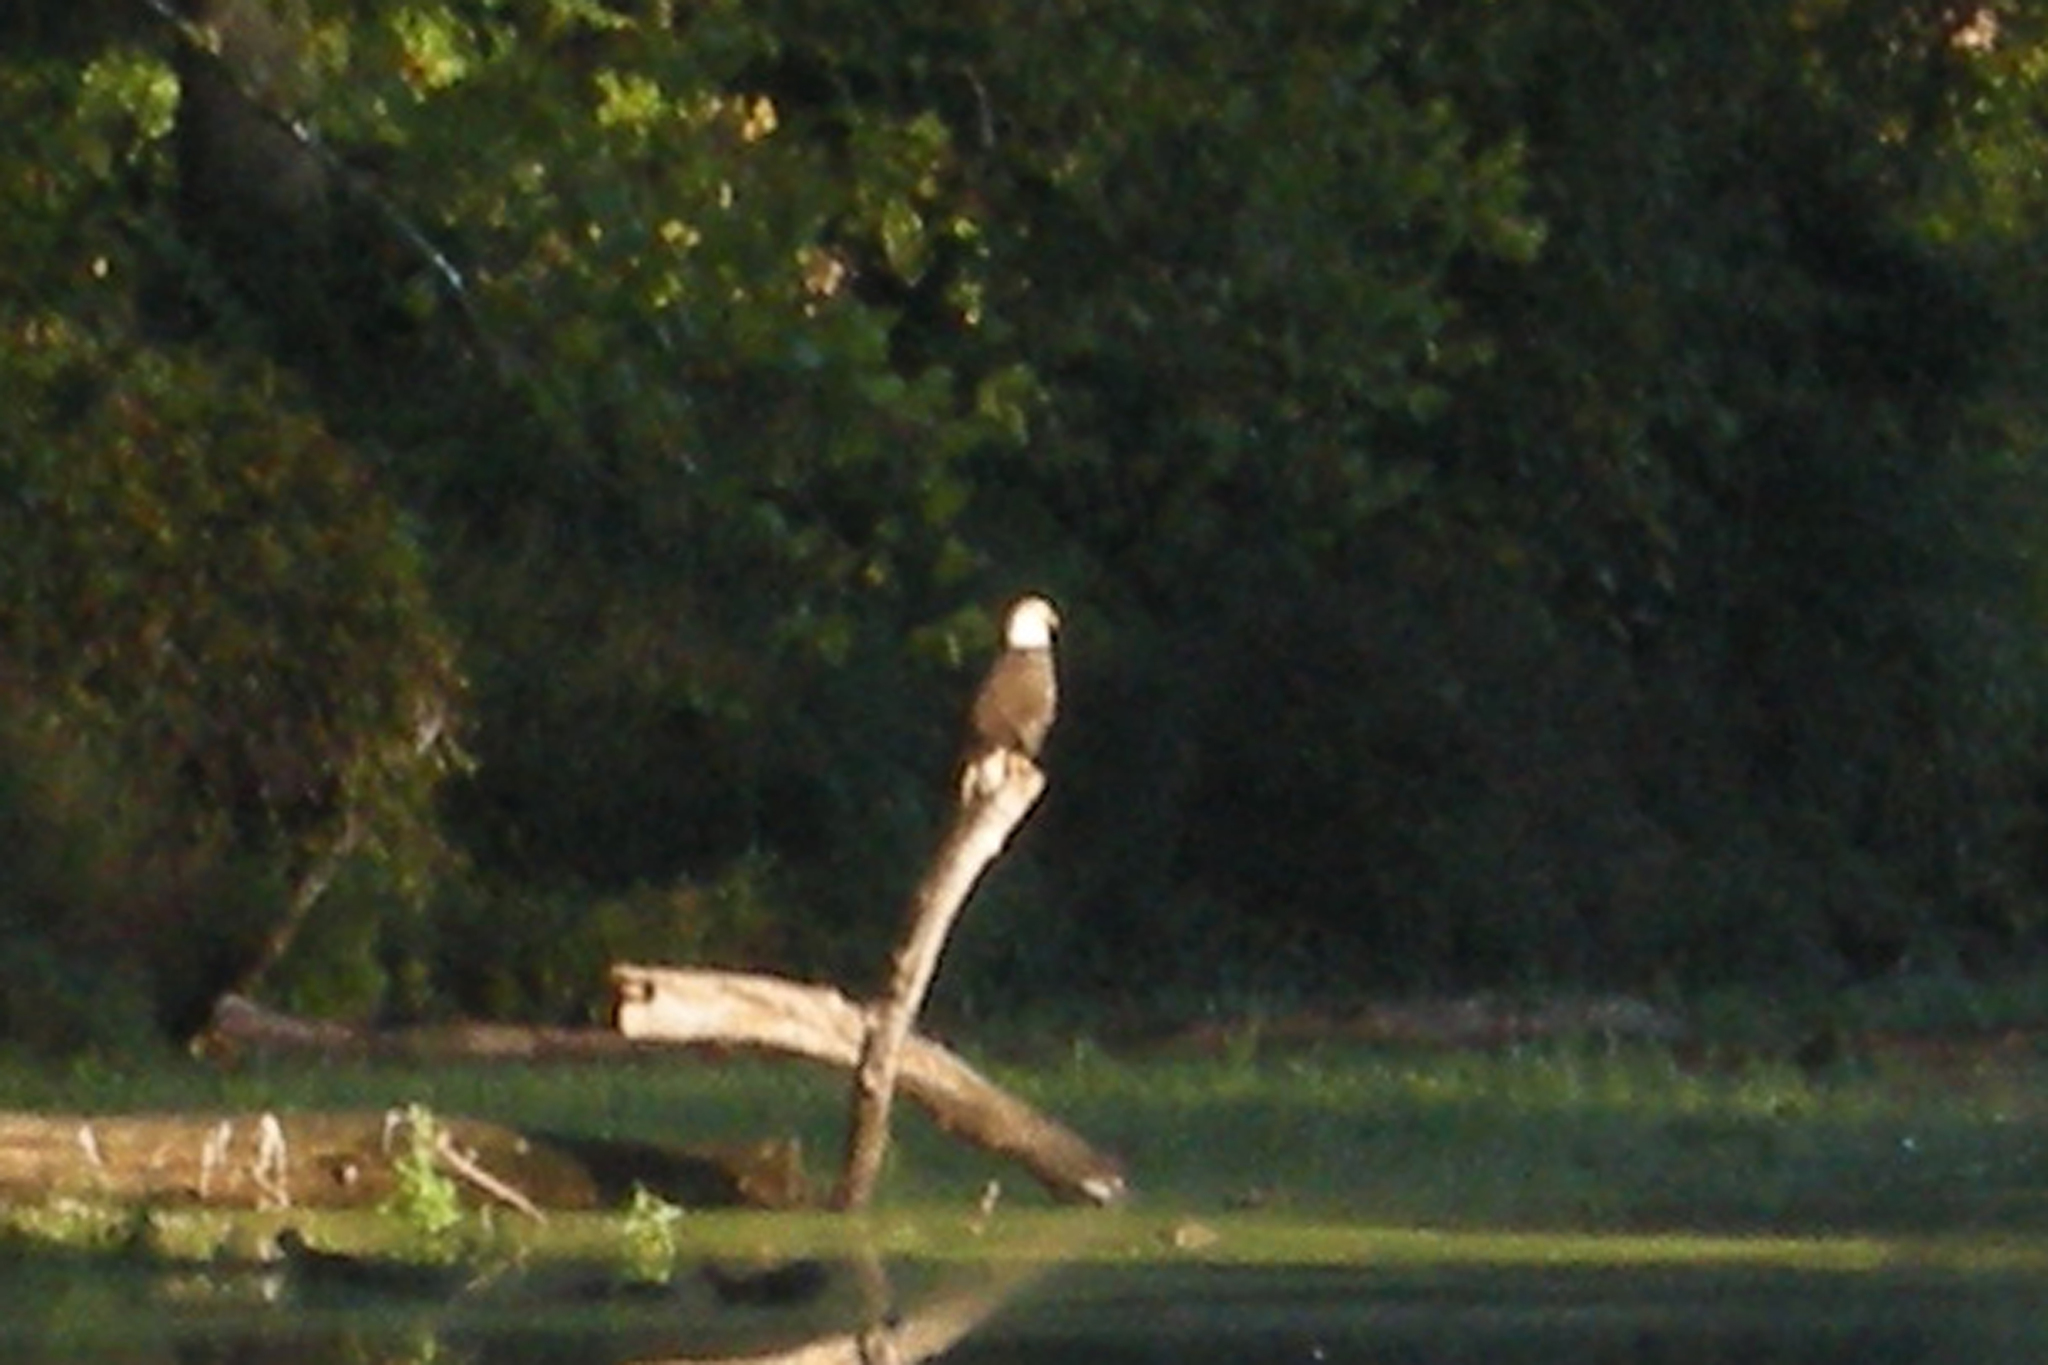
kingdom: Animalia
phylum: Chordata
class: Aves
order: Accipitriformes
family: Accipitridae
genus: Haliaeetus
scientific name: Haliaeetus leucocephalus
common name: Bald eagle
